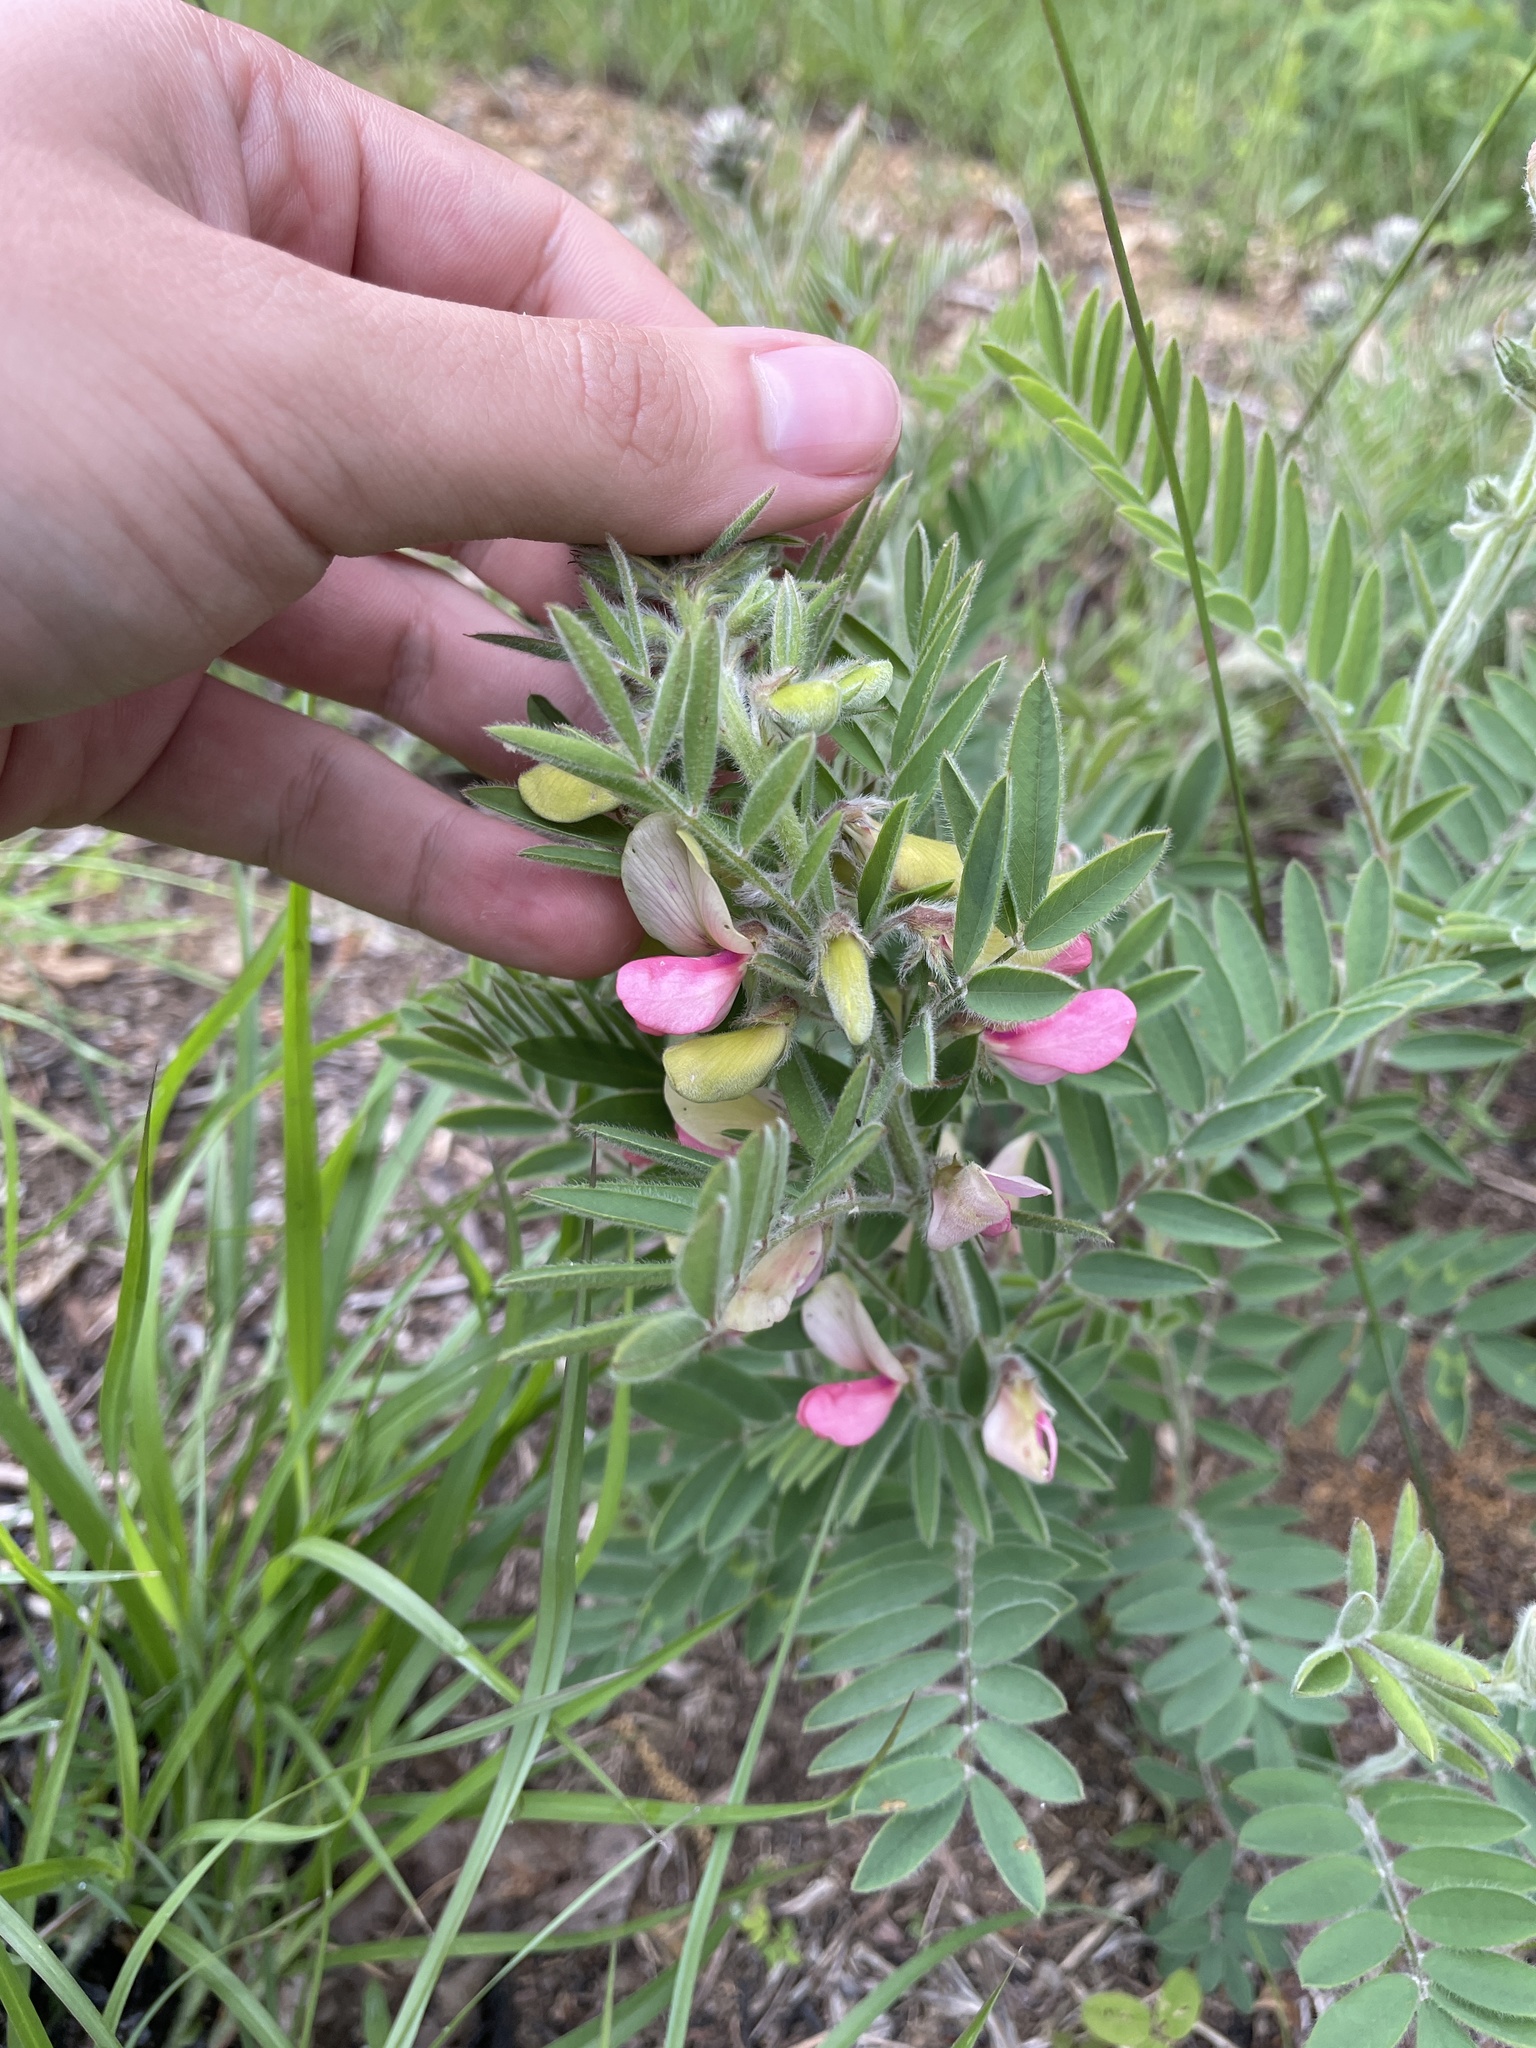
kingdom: Plantae
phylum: Tracheophyta
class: Magnoliopsida
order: Fabales
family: Fabaceae
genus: Tephrosia
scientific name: Tephrosia virginiana
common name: Rabbit-pea
